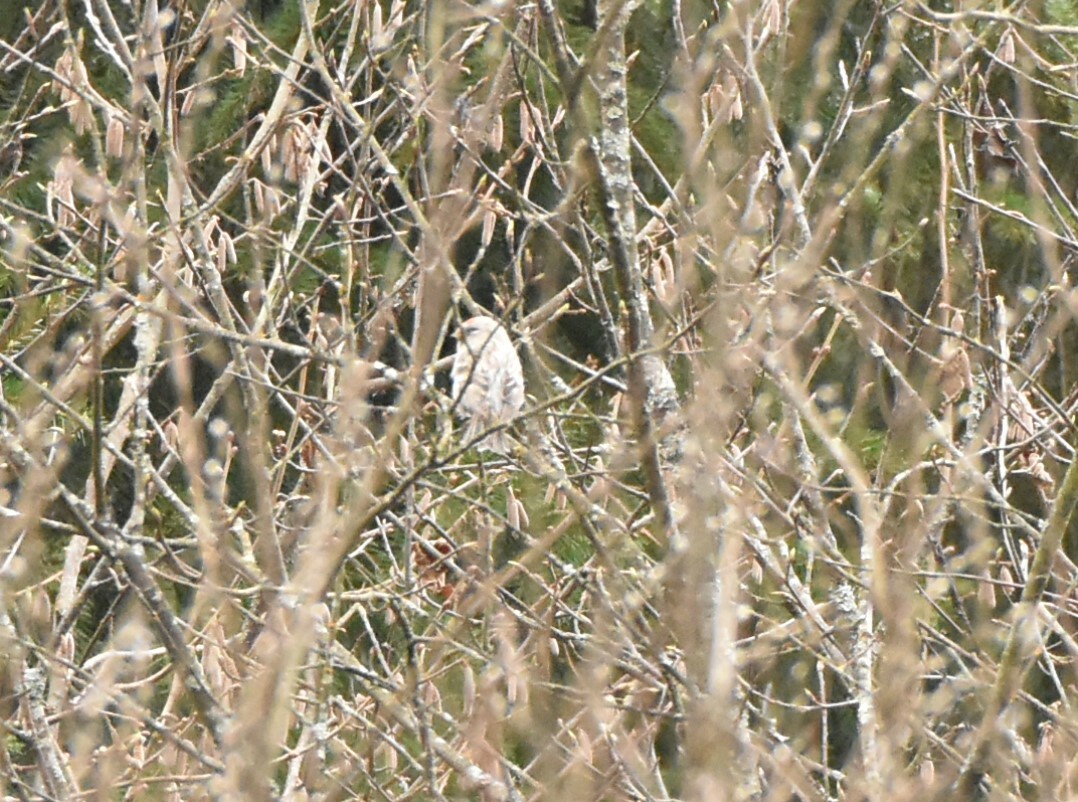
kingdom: Animalia
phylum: Chordata
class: Aves
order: Passeriformes
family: Fringillidae
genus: Acanthis
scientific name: Acanthis flammea
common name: Common redpoll
